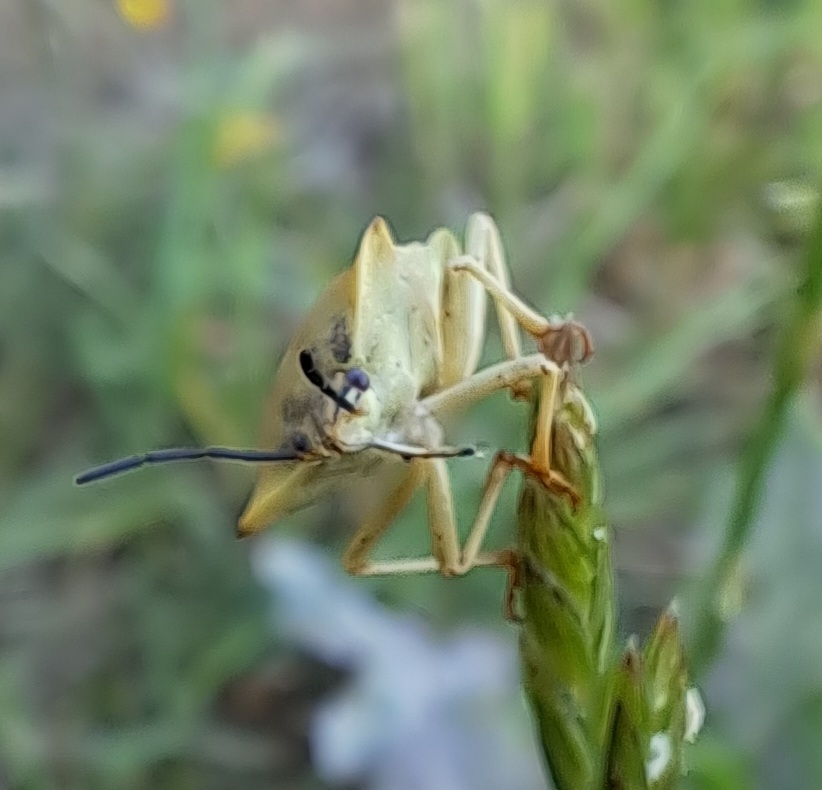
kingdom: Animalia
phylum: Arthropoda
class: Insecta
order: Hemiptera
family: Pentatomidae
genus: Carpocoris
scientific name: Carpocoris fuscispinus
